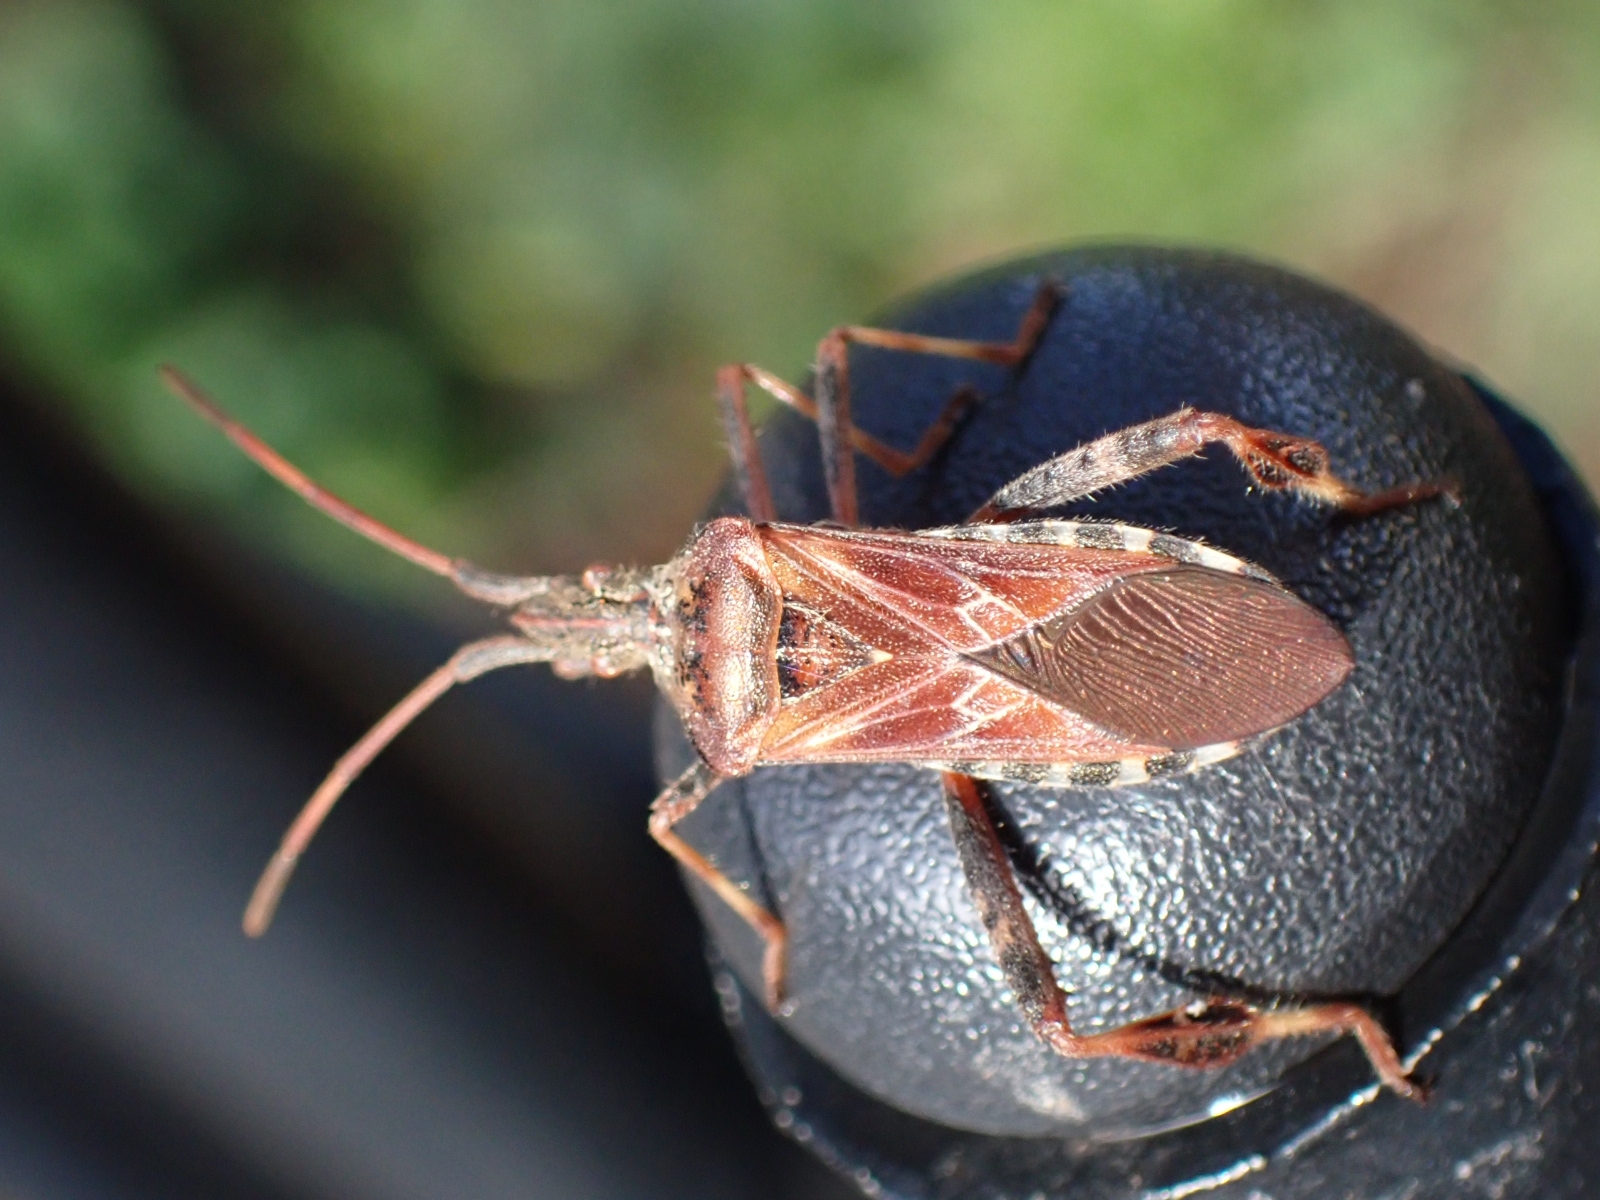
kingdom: Animalia
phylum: Arthropoda
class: Insecta
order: Hemiptera
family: Coreidae
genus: Leptoglossus
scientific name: Leptoglossus occidentalis
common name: Western conifer-seed bug
